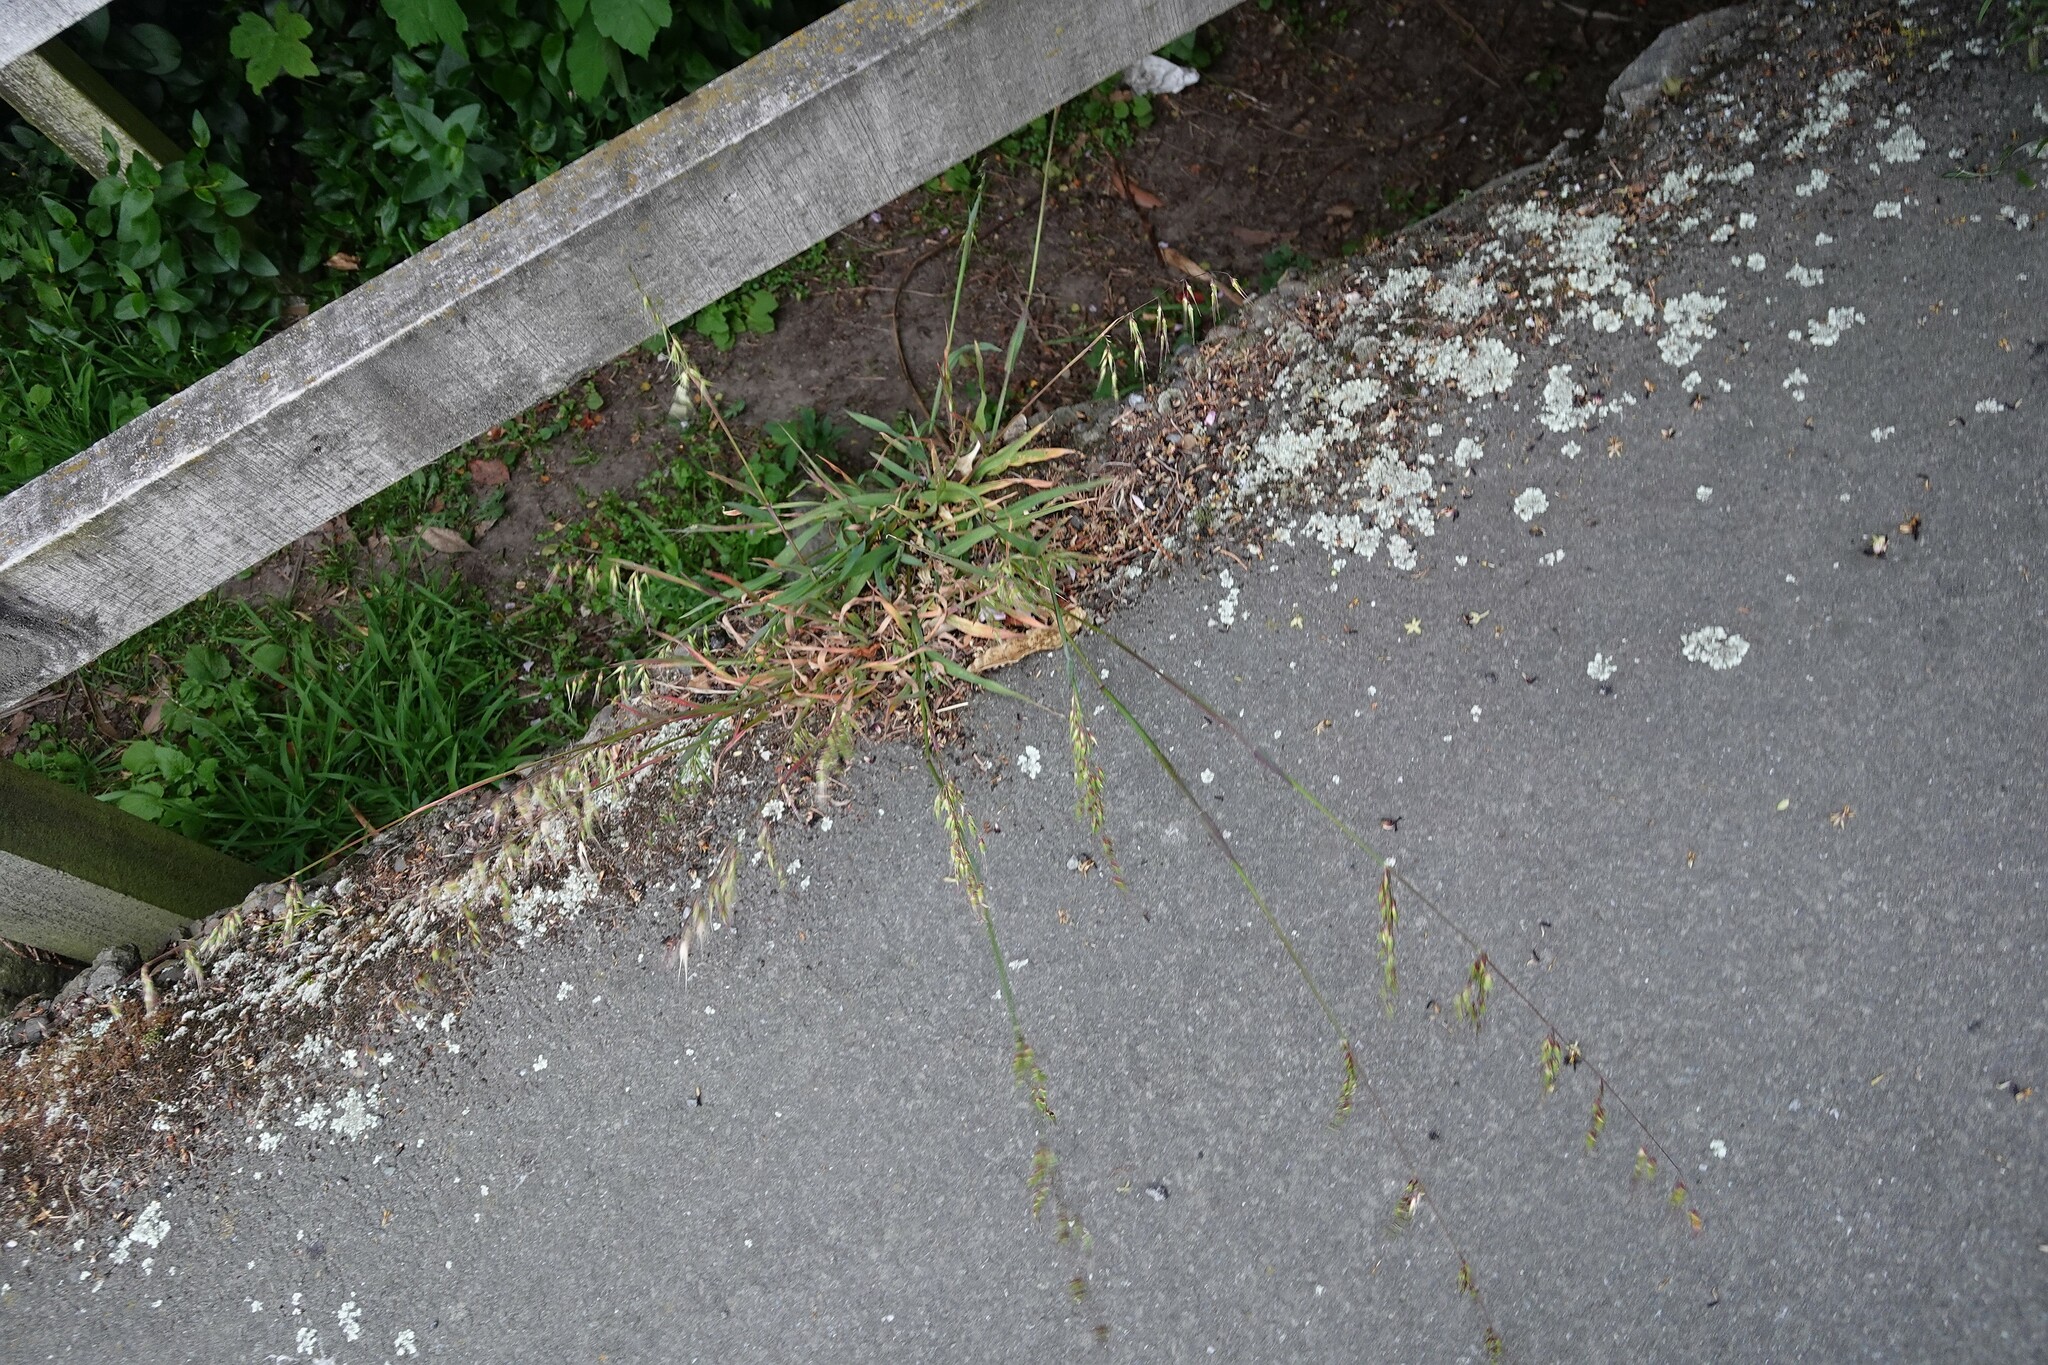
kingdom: Plantae
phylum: Tracheophyta
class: Liliopsida
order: Poales
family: Poaceae
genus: Ehrharta
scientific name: Ehrharta longiflora
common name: Longflowered veldtgrass
